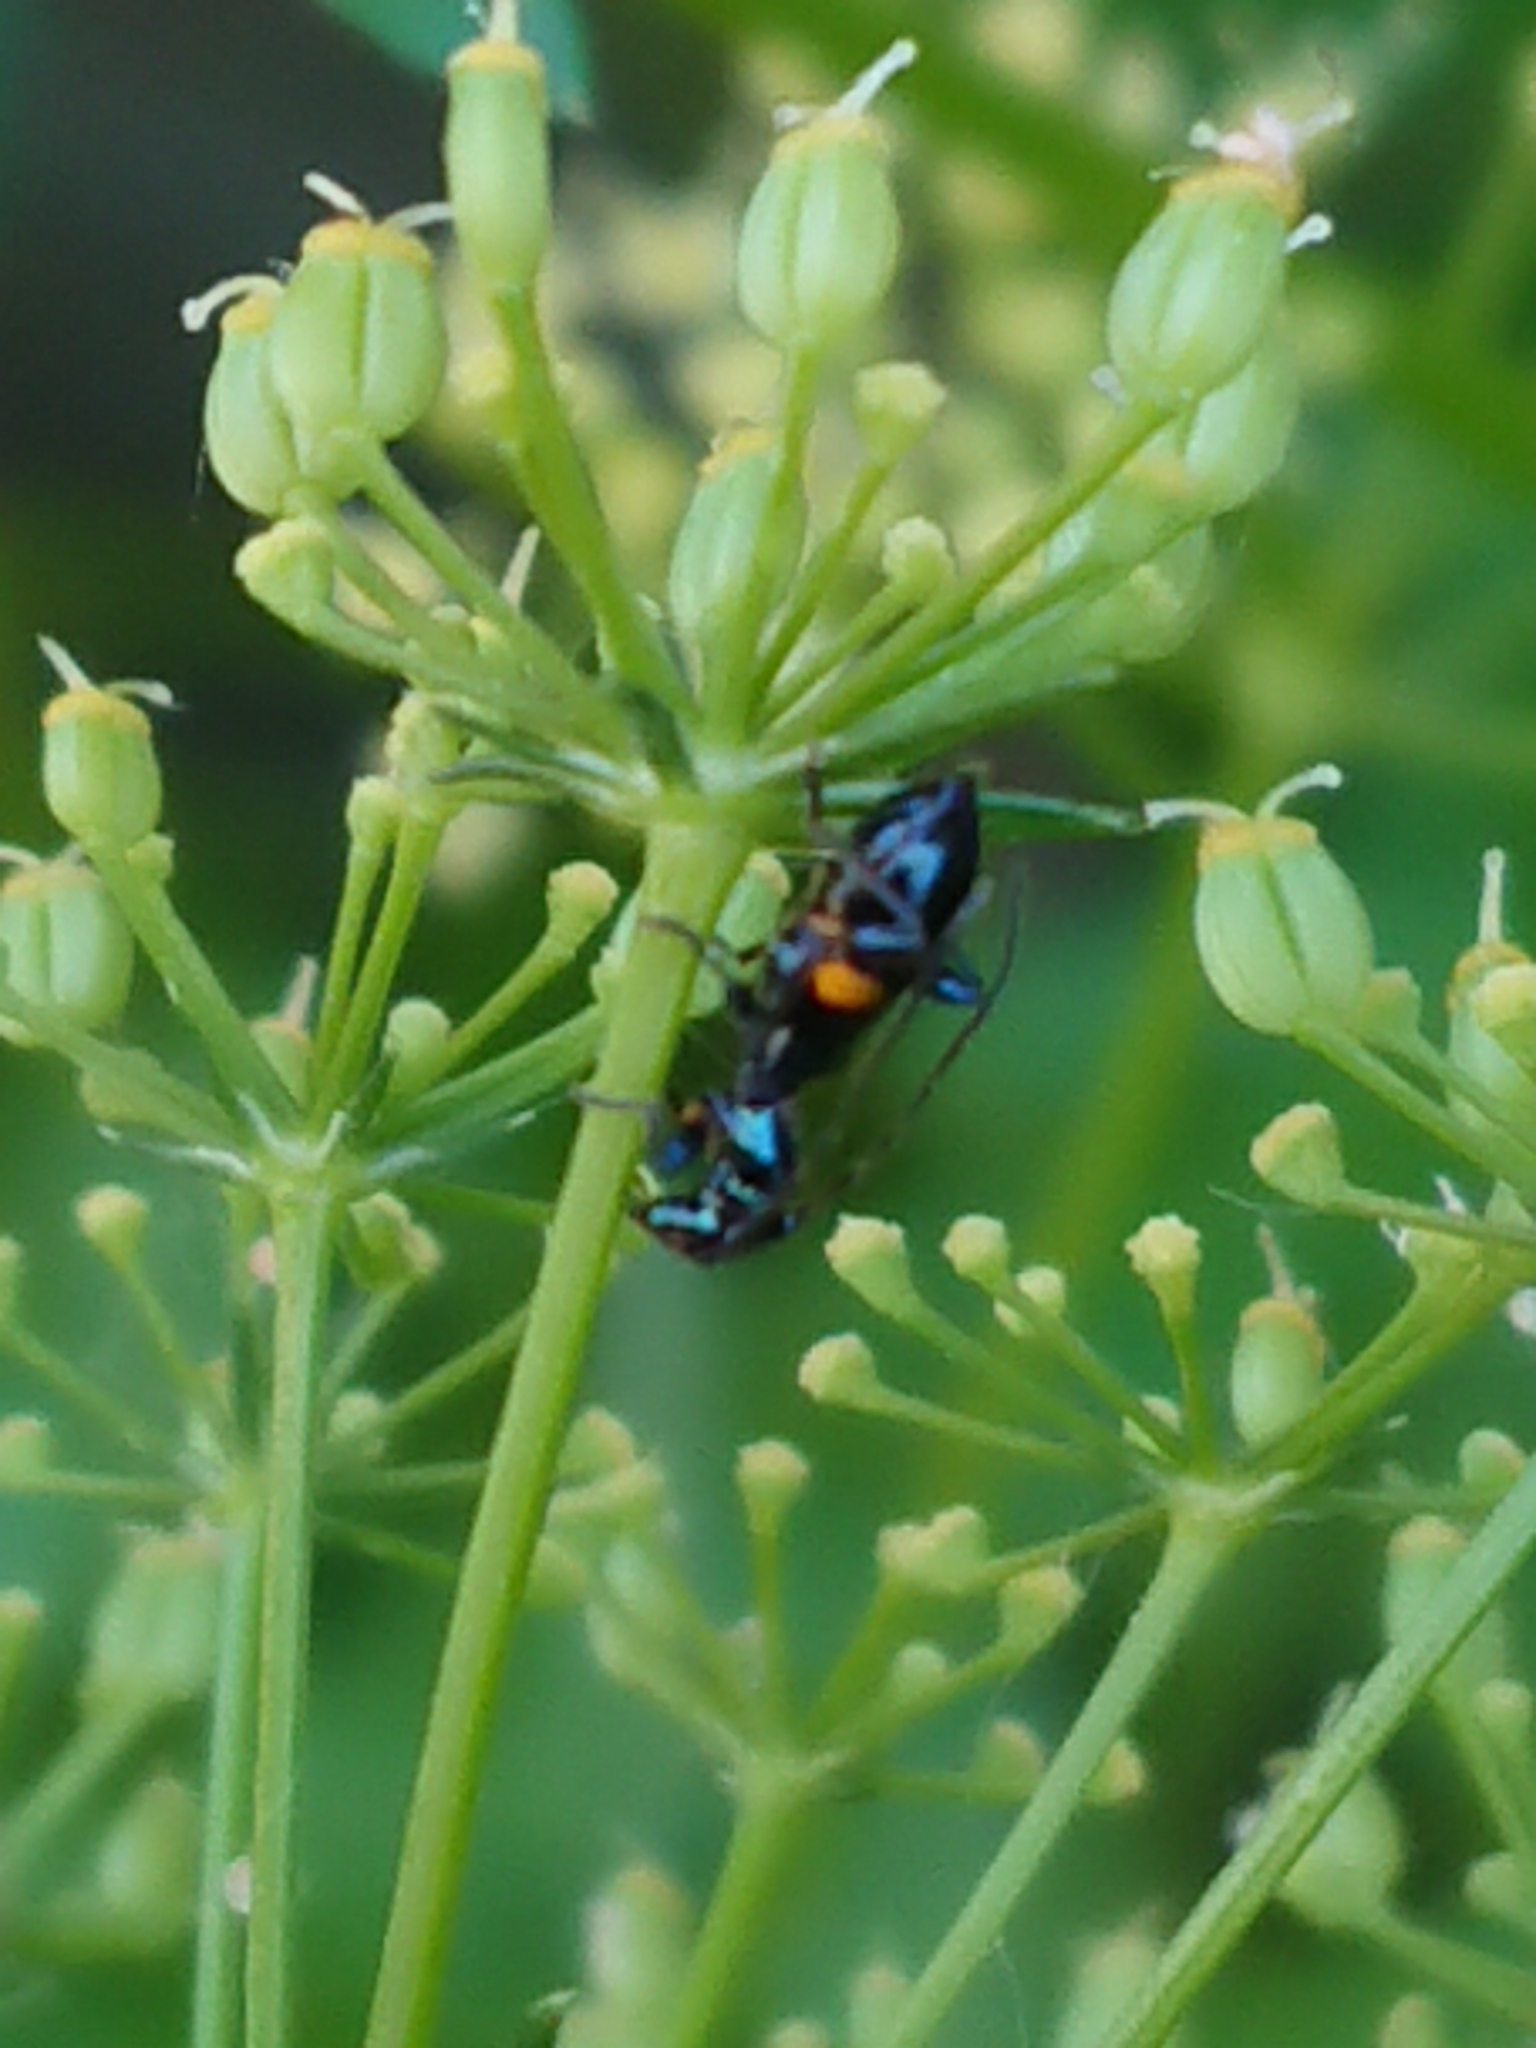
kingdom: Animalia
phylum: Arthropoda
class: Insecta
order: Coleoptera
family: Cerambycidae
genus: Zorion
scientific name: Zorion guttigerum
